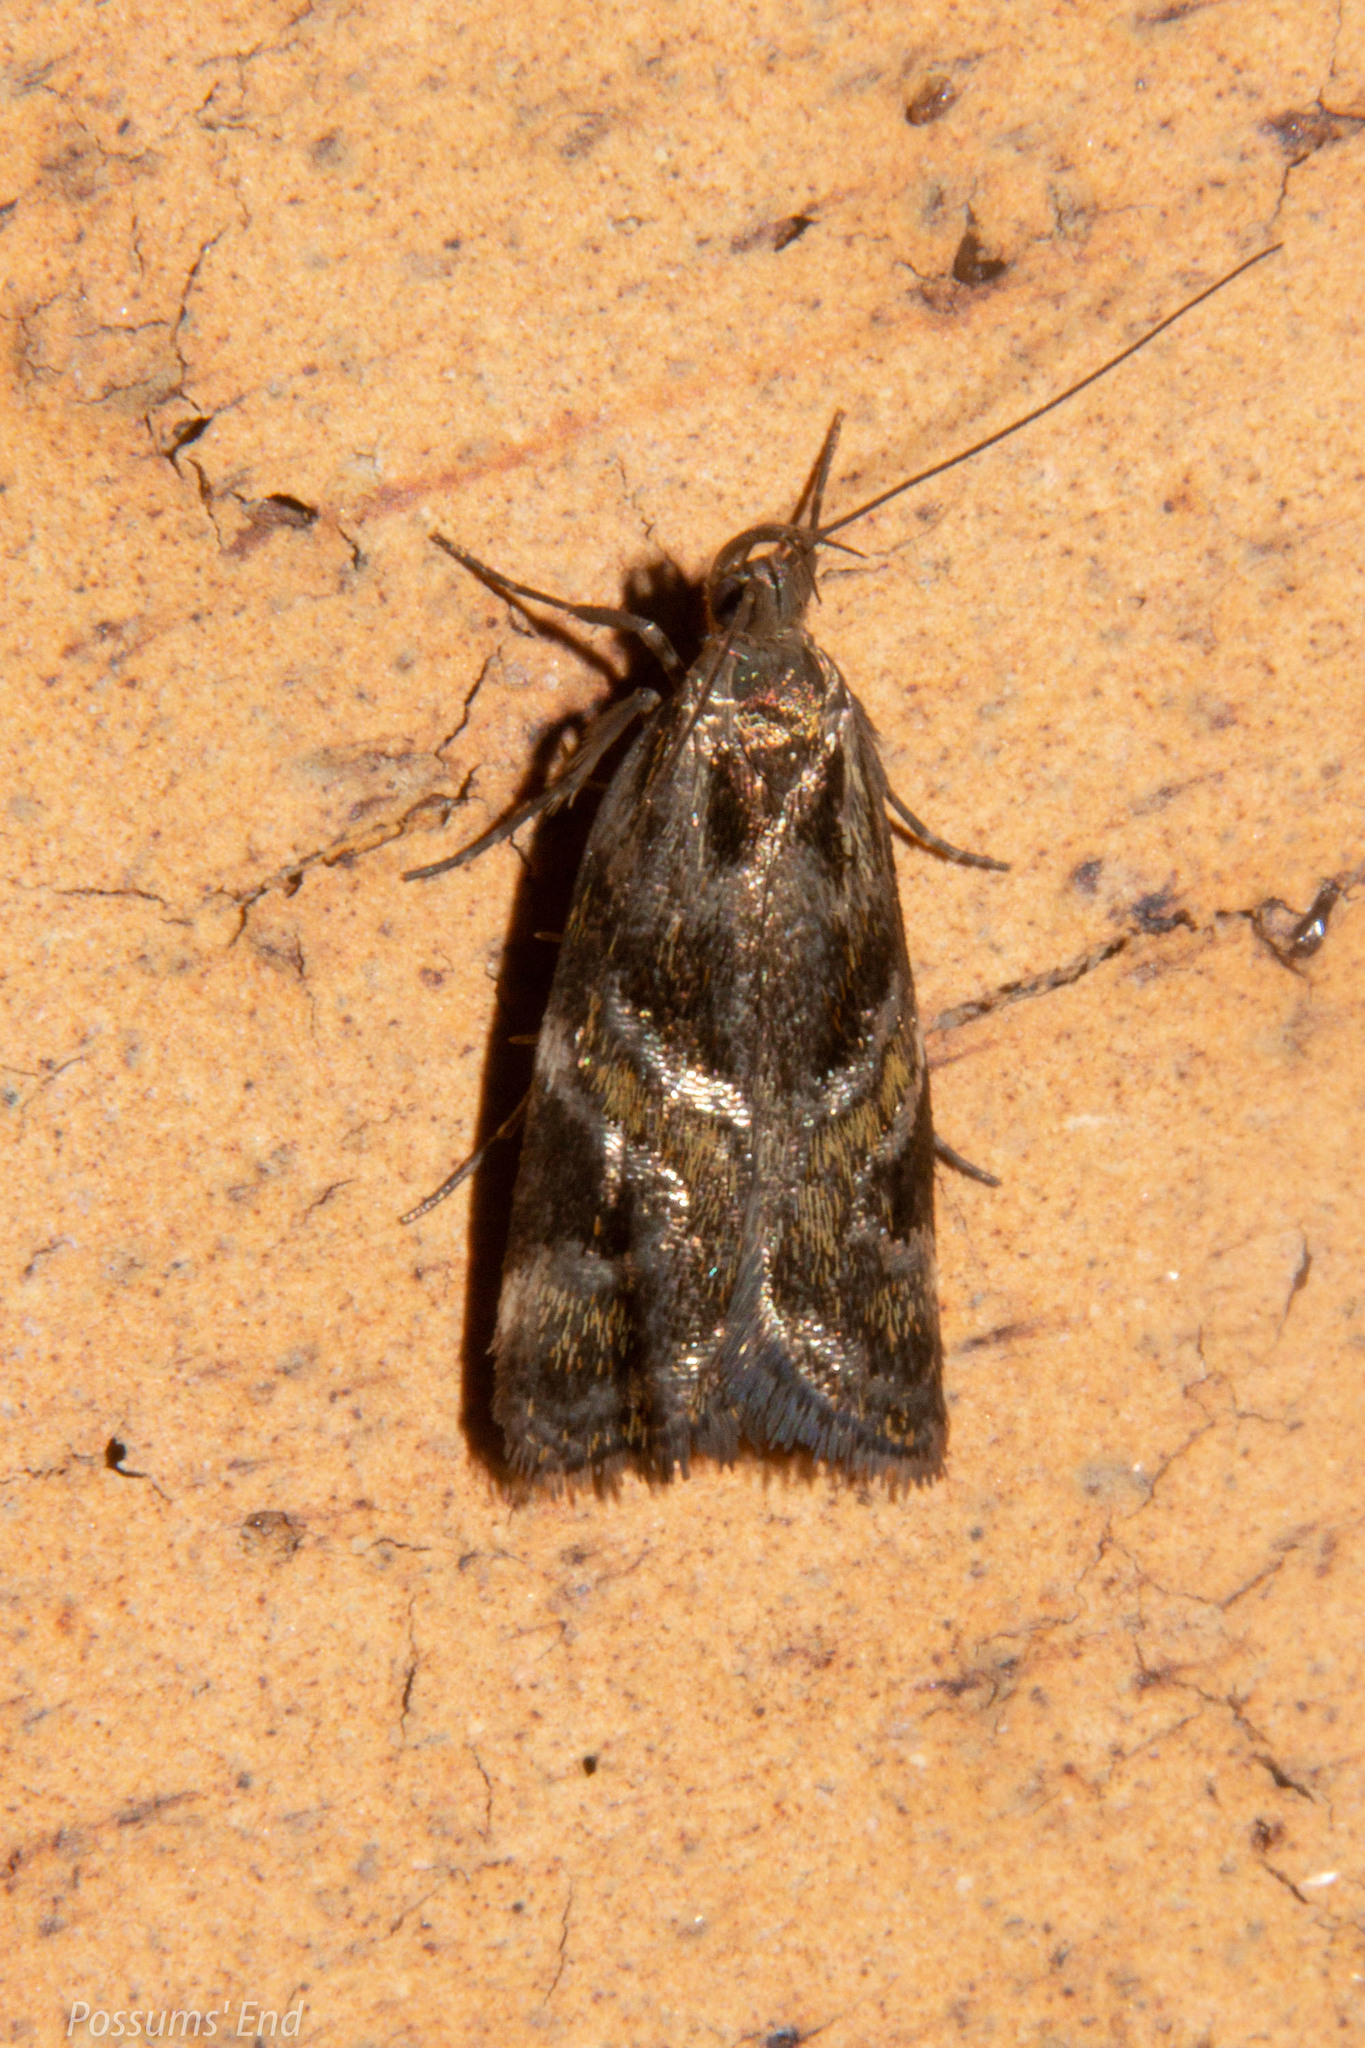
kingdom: Animalia
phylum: Arthropoda
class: Insecta
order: Lepidoptera
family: Oecophoridae
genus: Hierodoris
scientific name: Hierodoris s-fractum
